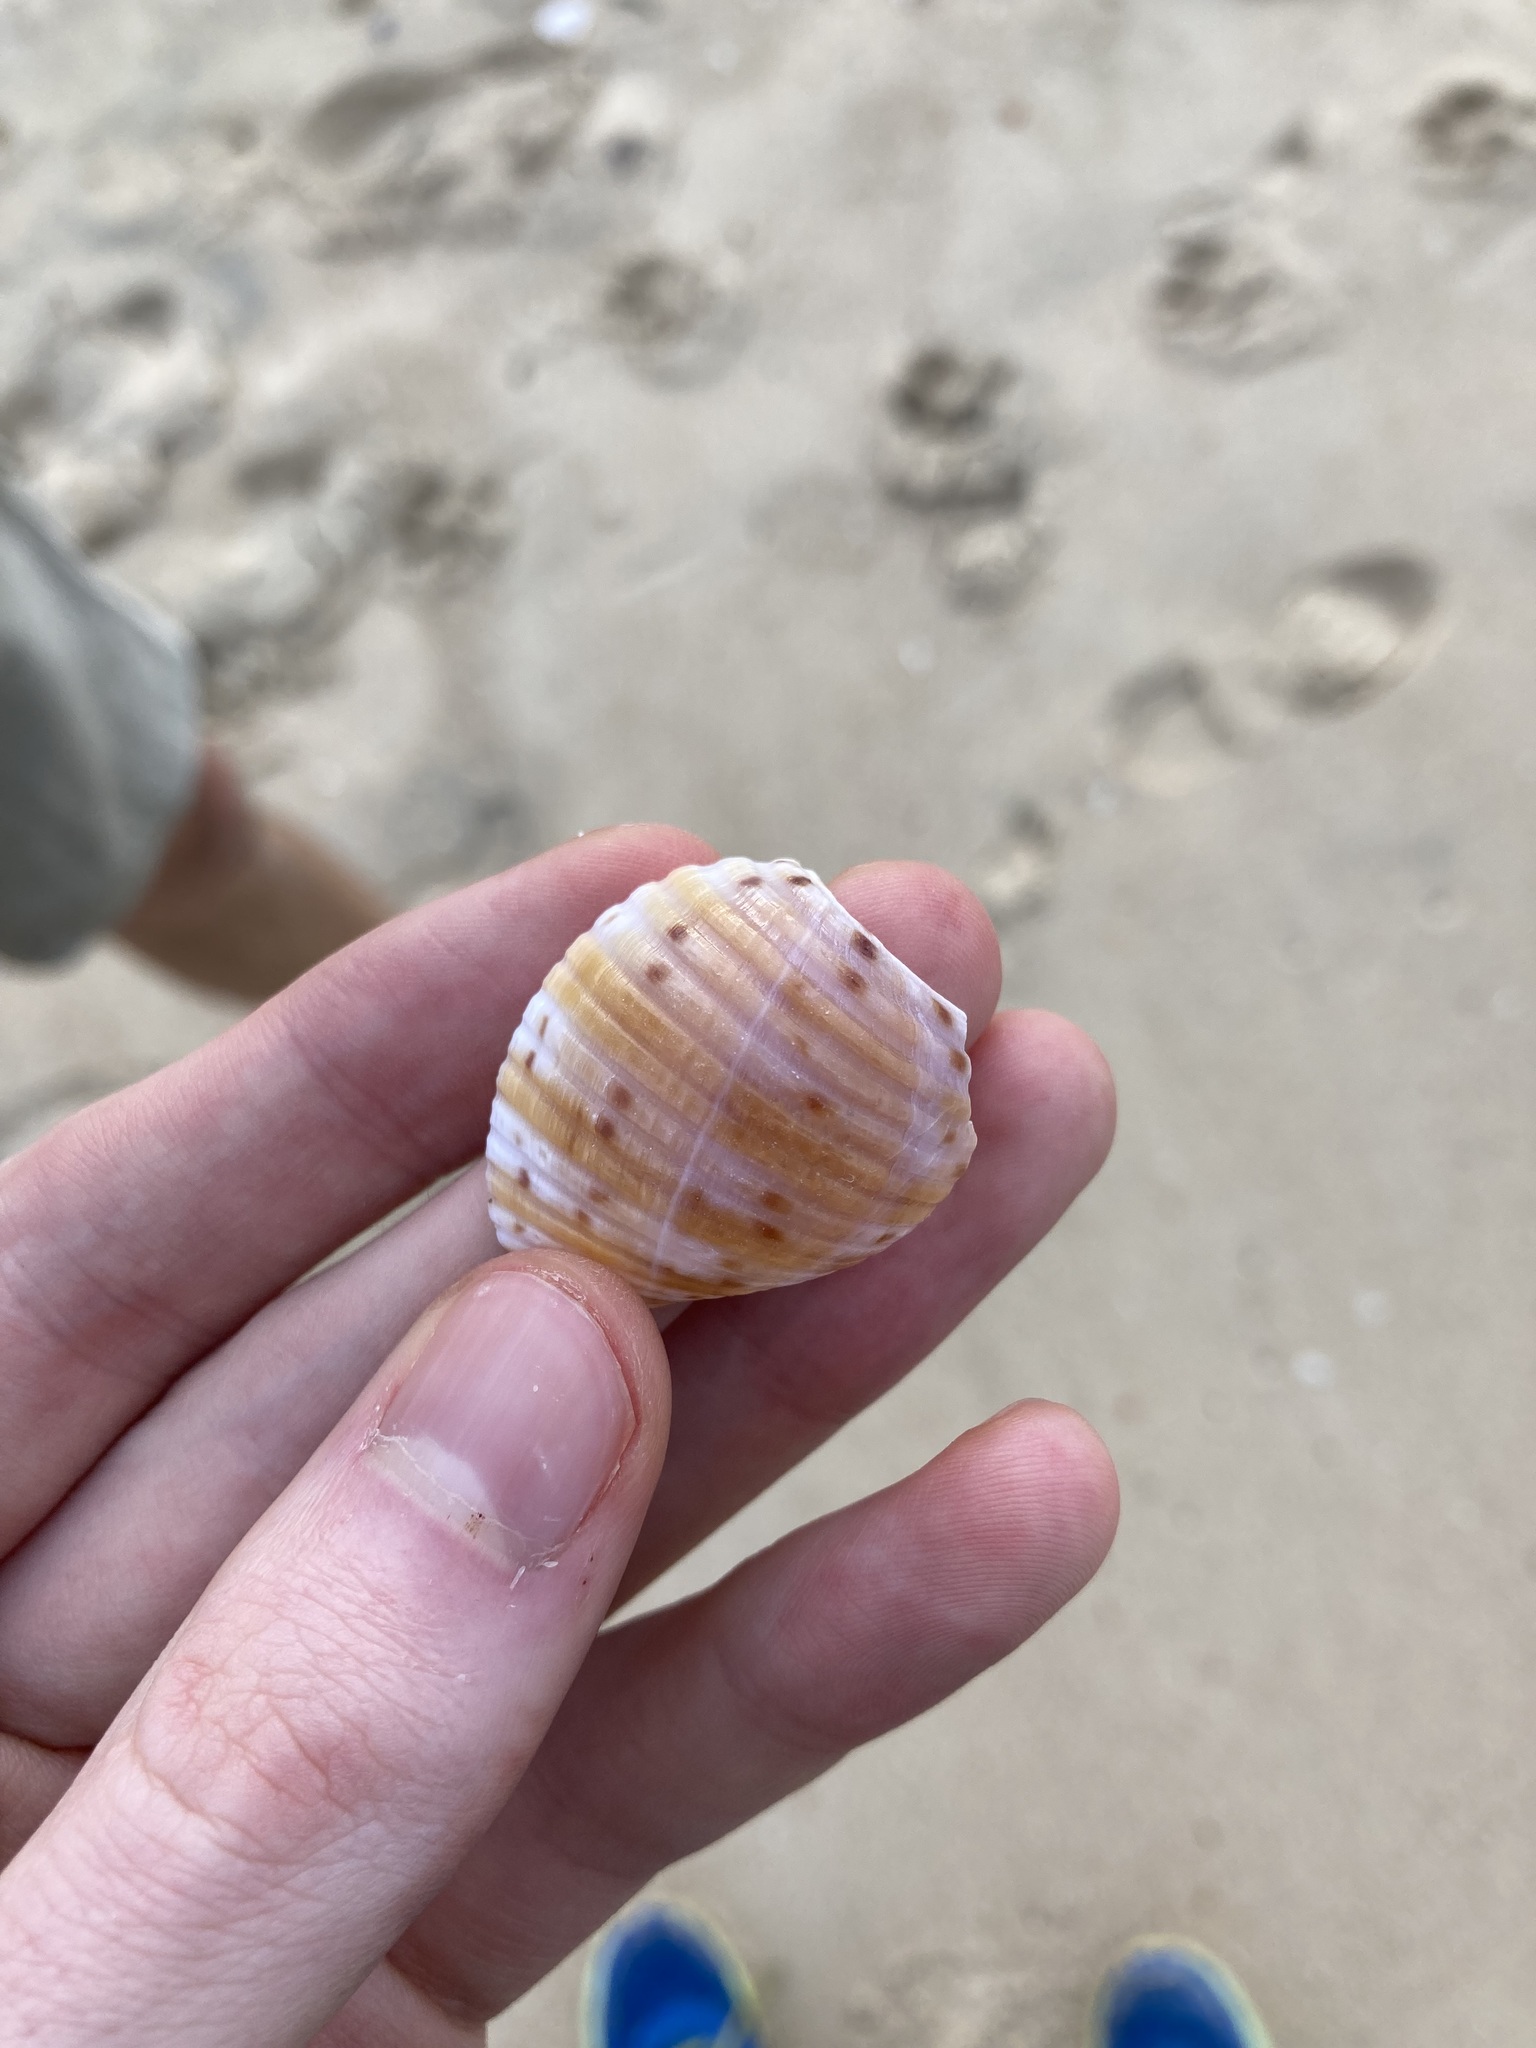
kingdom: Animalia
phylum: Mollusca
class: Gastropoda
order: Littorinimorpha
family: Tonnidae
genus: Tonna
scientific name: Tonna tankervillii
